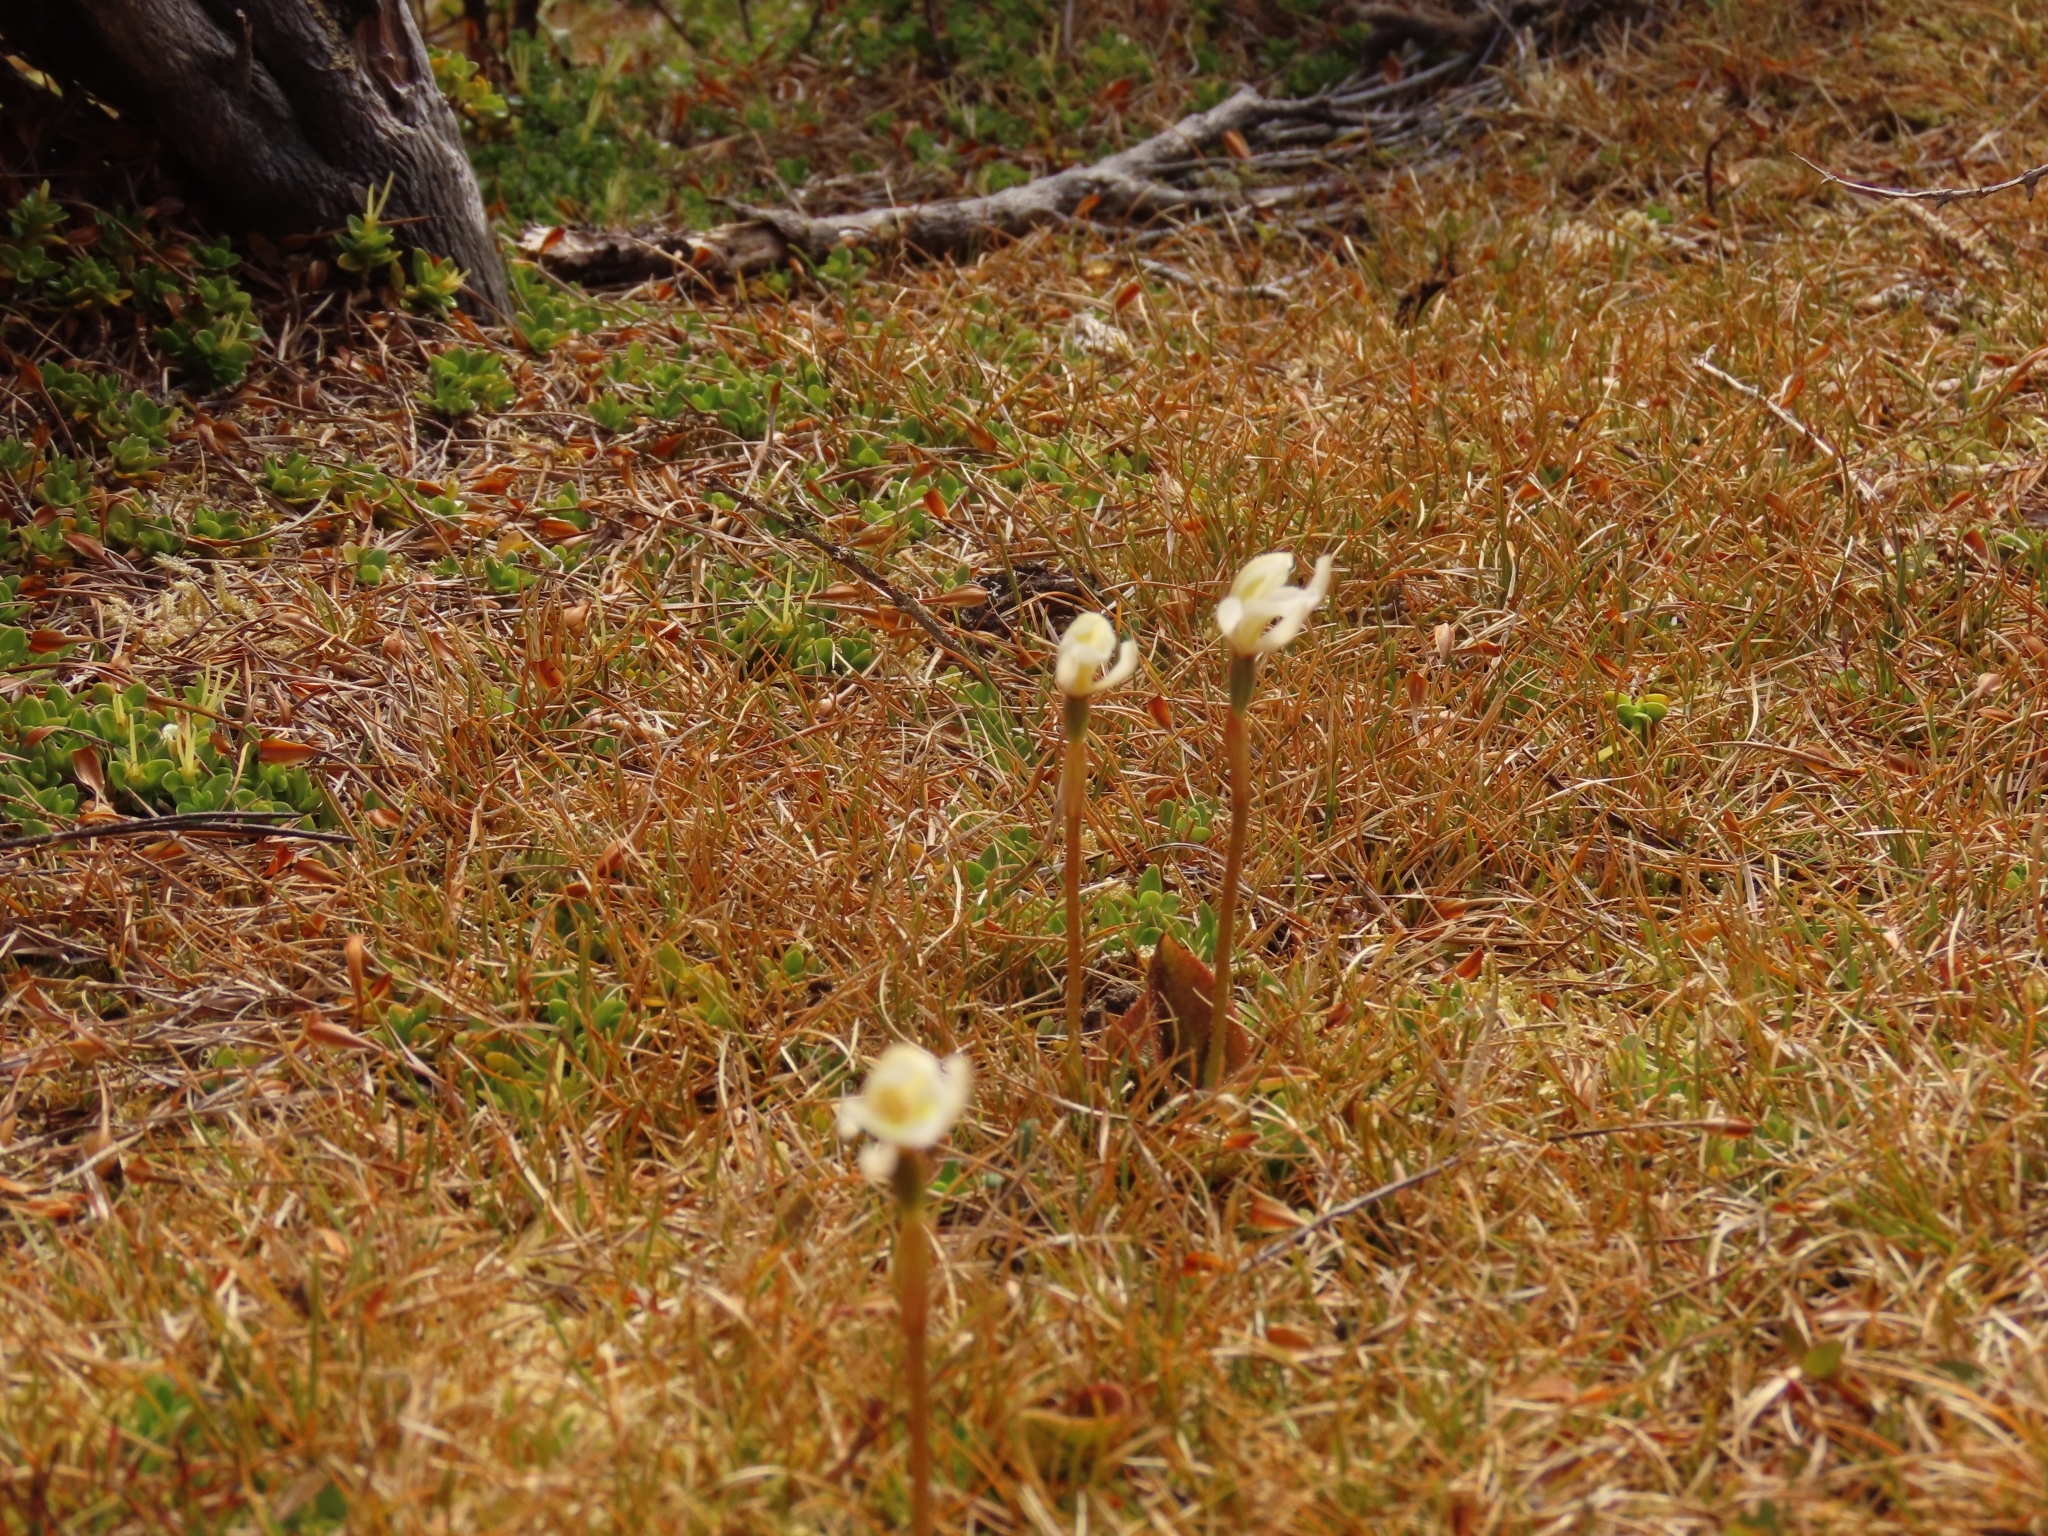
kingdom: Plantae
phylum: Tracheophyta
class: Liliopsida
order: Asparagales
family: Orchidaceae
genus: Aporostylis
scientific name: Aporostylis bifolia
